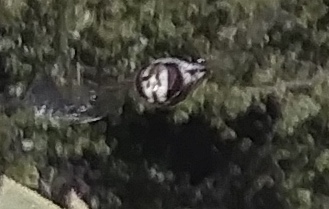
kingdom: Animalia
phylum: Arthropoda
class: Insecta
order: Diptera
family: Syrphidae
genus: Scaeva
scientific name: Scaeva affinis
